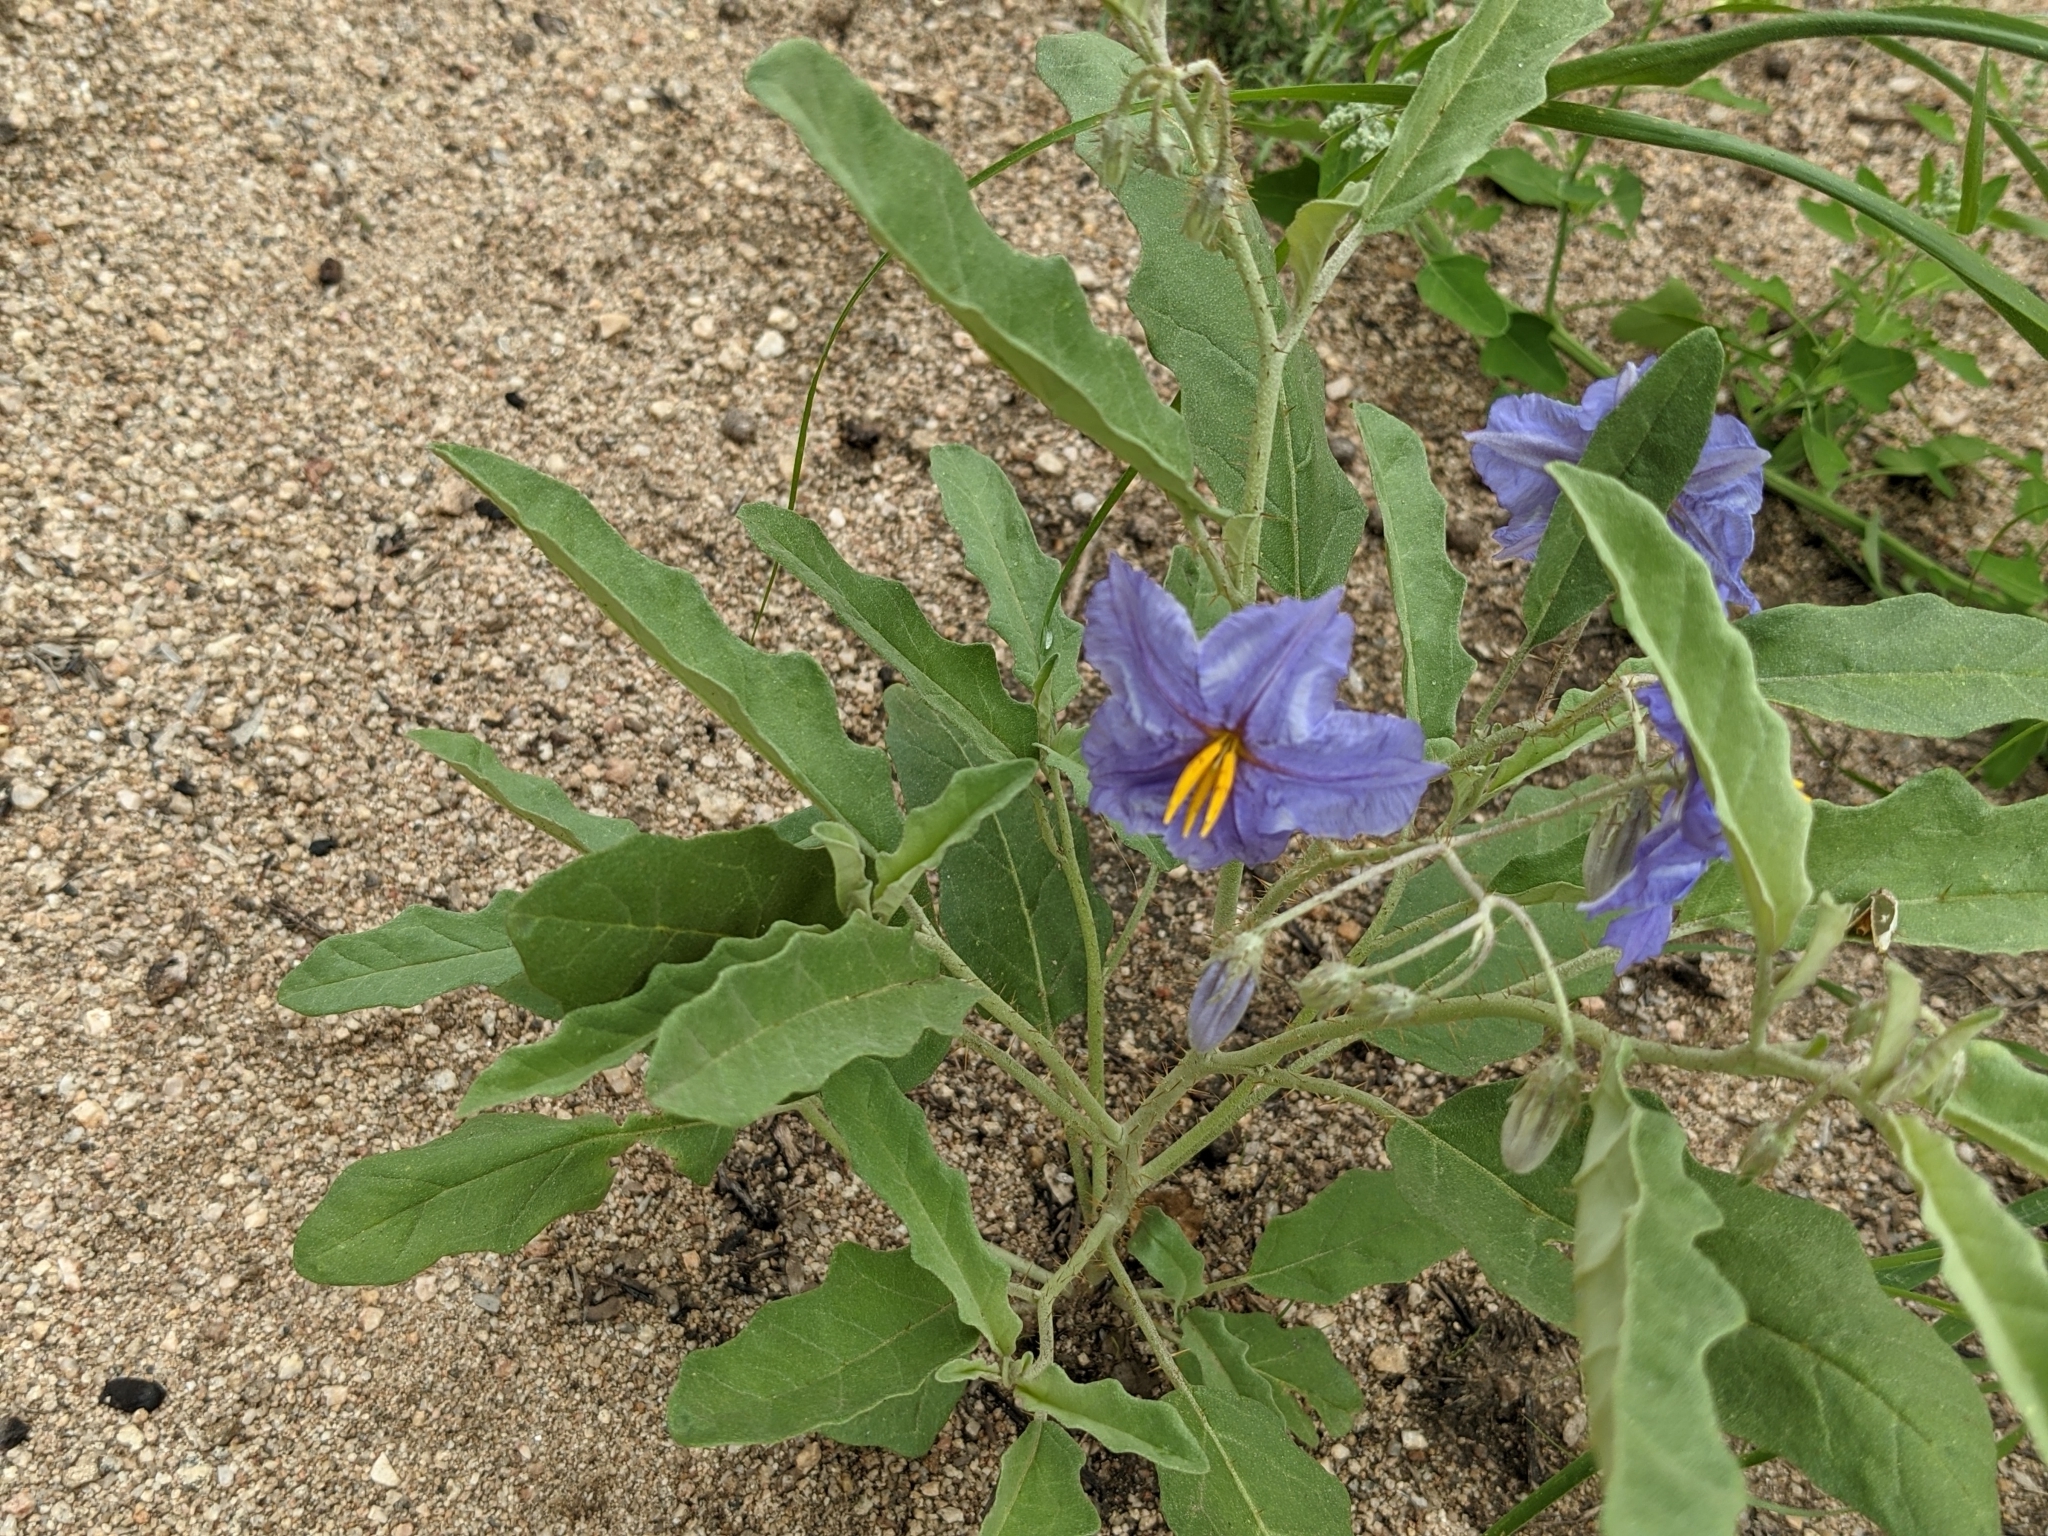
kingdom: Plantae
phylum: Tracheophyta
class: Magnoliopsida
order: Solanales
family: Solanaceae
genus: Solanum
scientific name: Solanum elaeagnifolium
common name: Silverleaf nightshade
